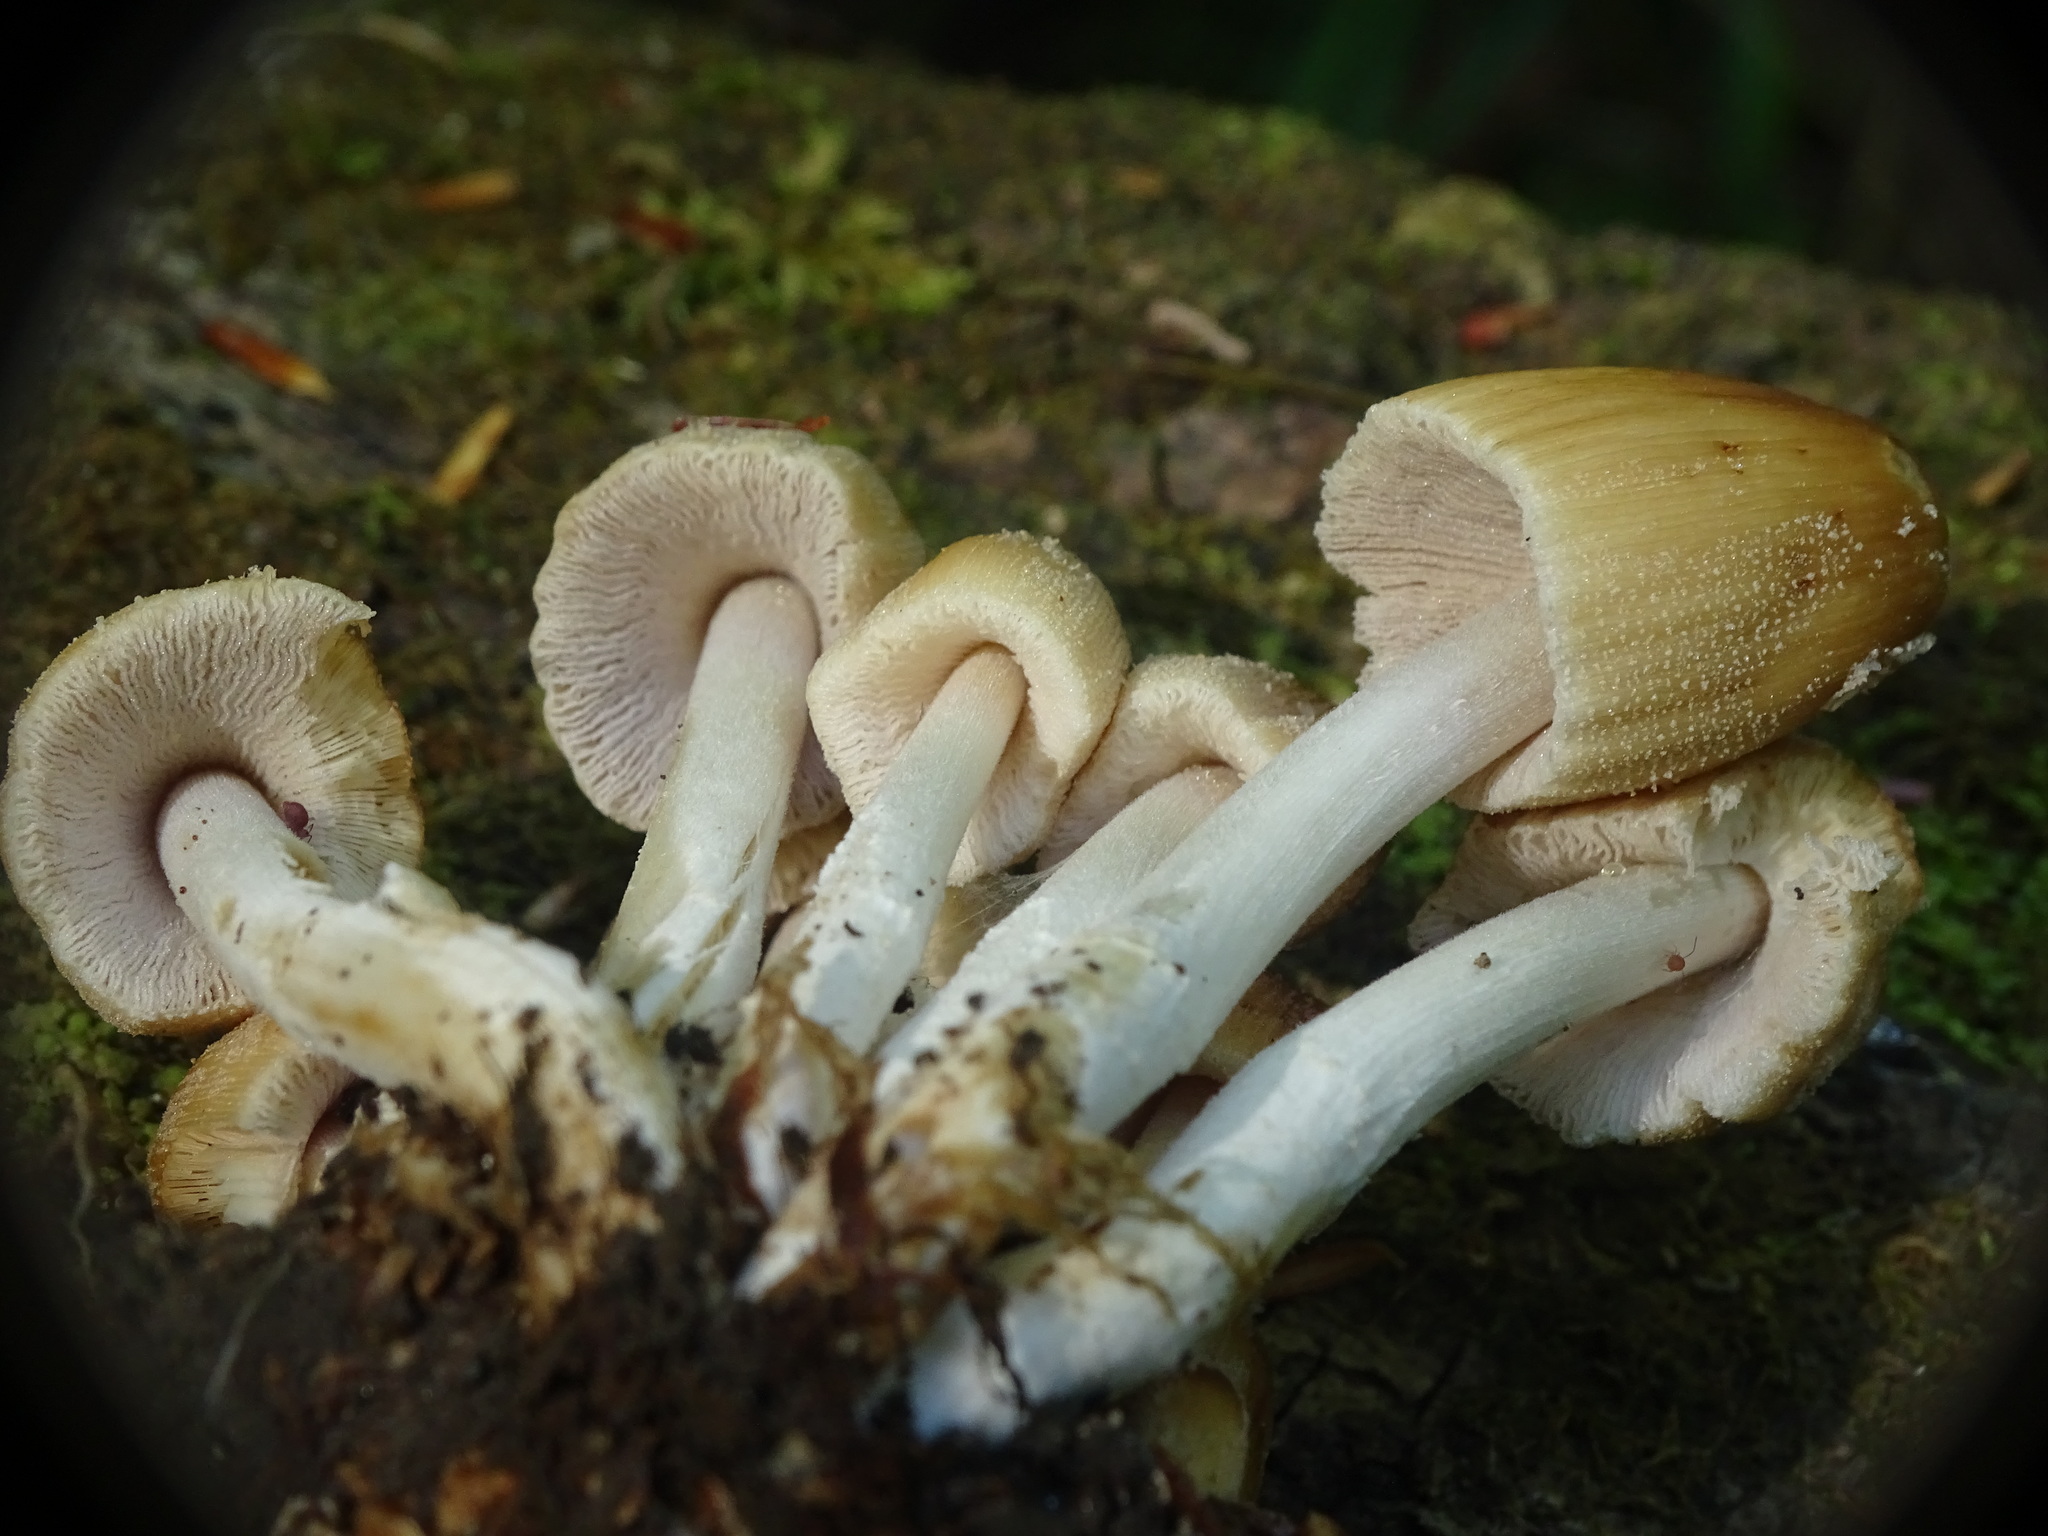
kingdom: Fungi
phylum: Basidiomycota
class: Agaricomycetes
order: Agaricales
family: Psathyrellaceae
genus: Coprinellus
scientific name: Coprinellus micaceus
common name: Glistening ink-cap
